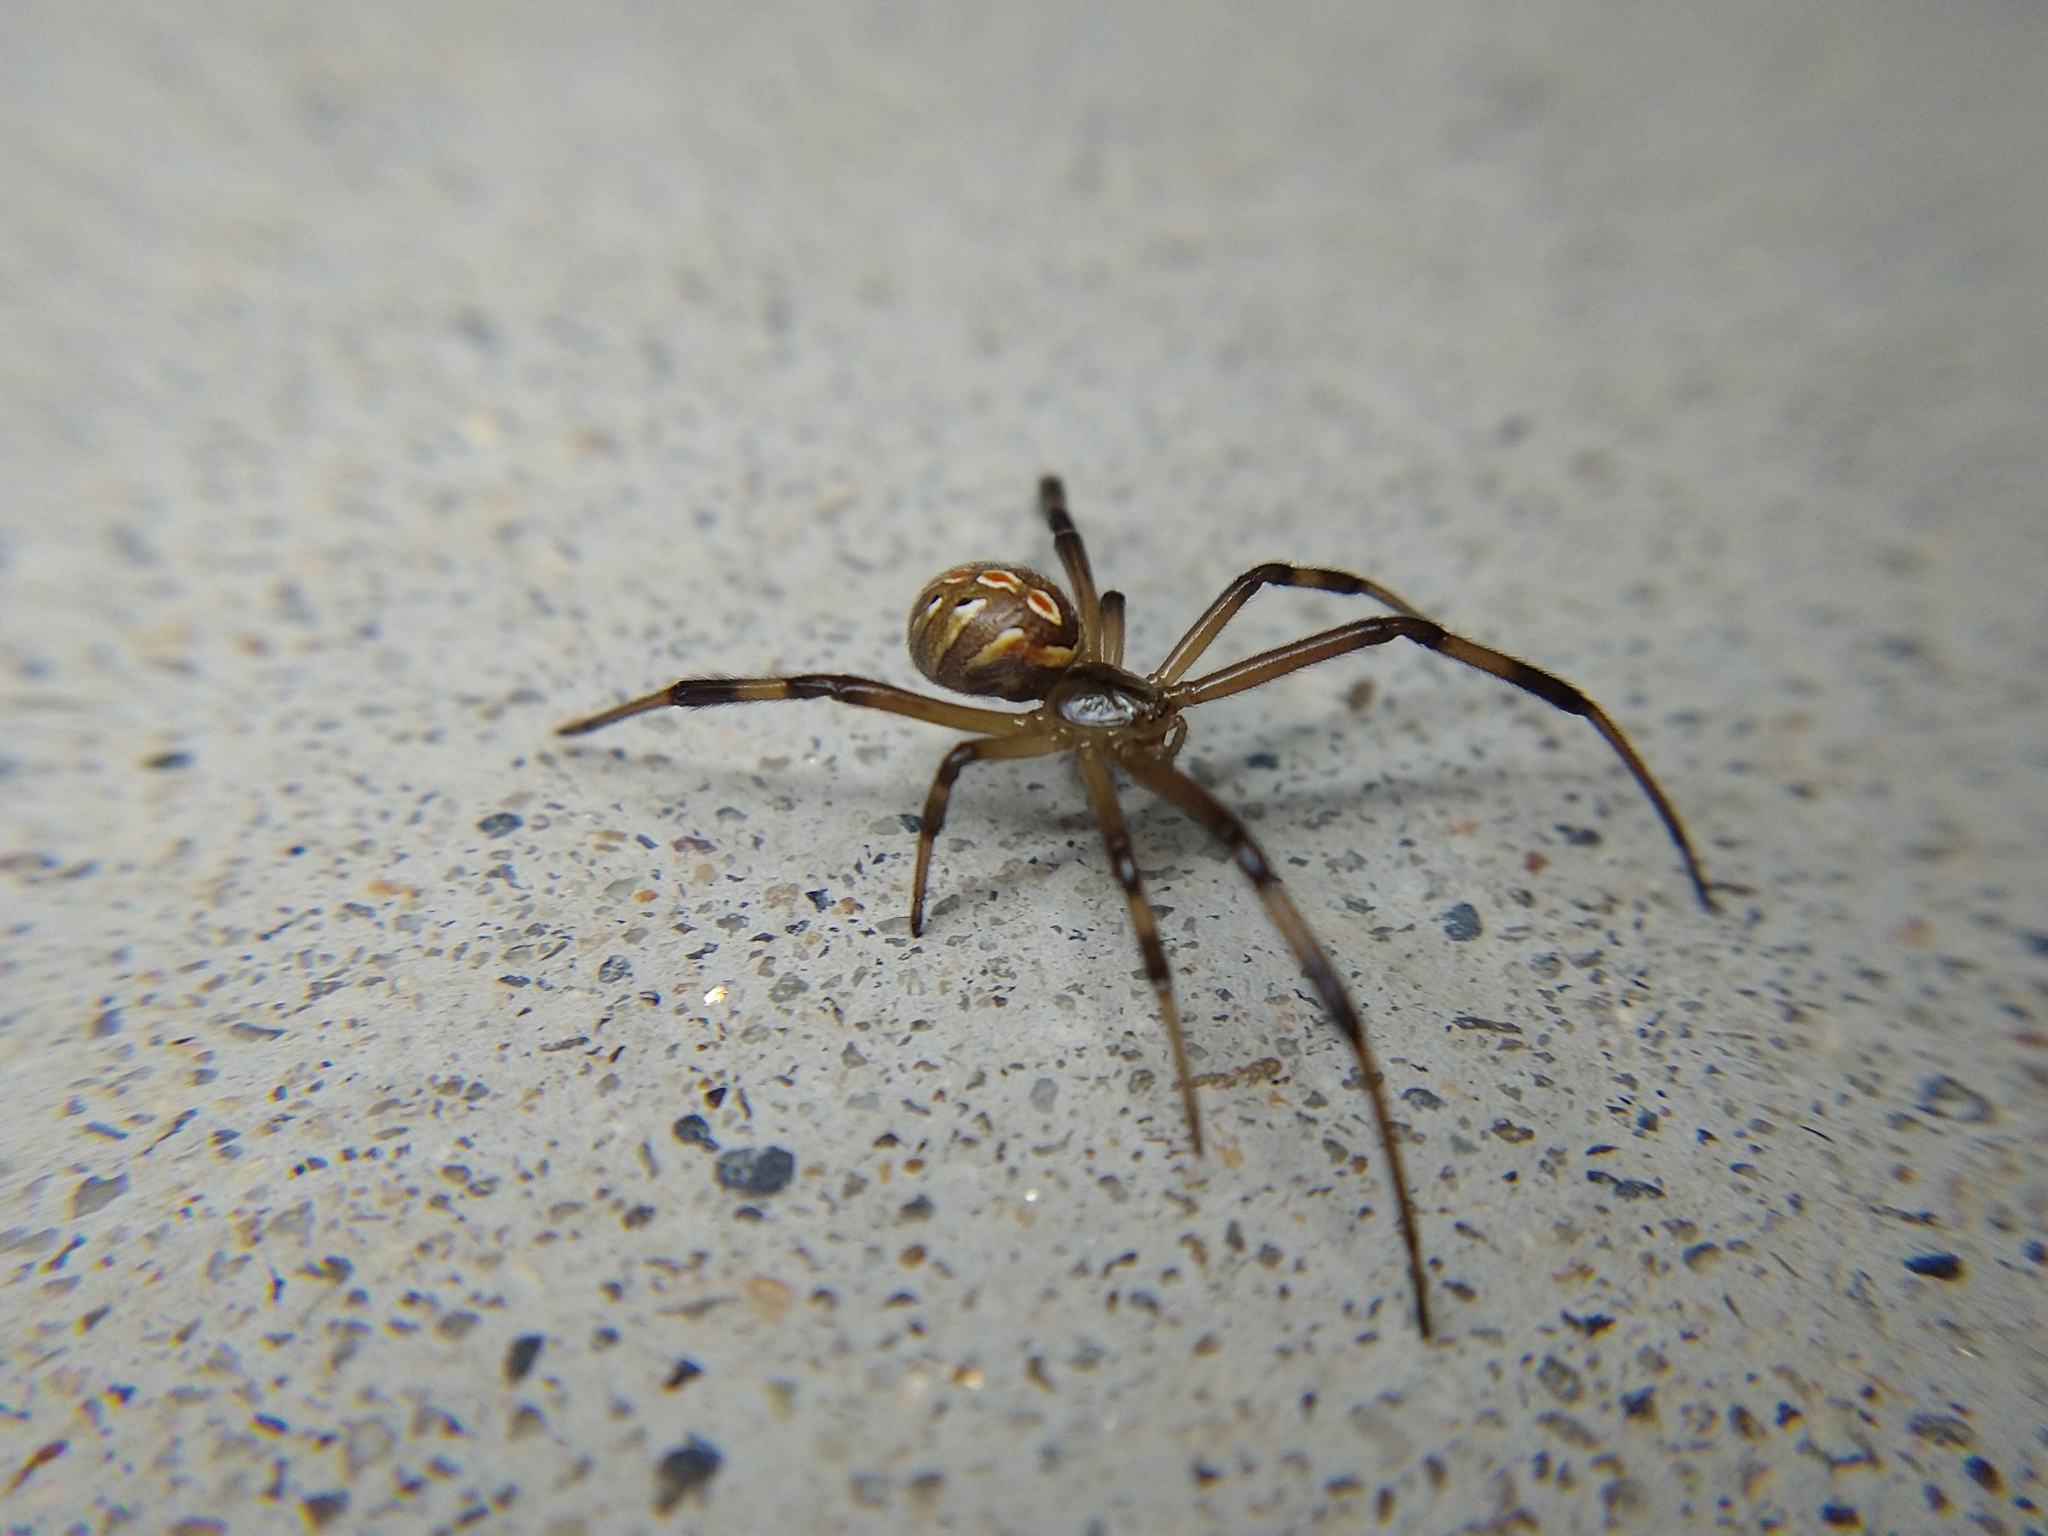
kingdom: Animalia
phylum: Arthropoda
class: Arachnida
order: Araneae
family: Theridiidae
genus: Latrodectus
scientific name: Latrodectus hesperus
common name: Western black widow
